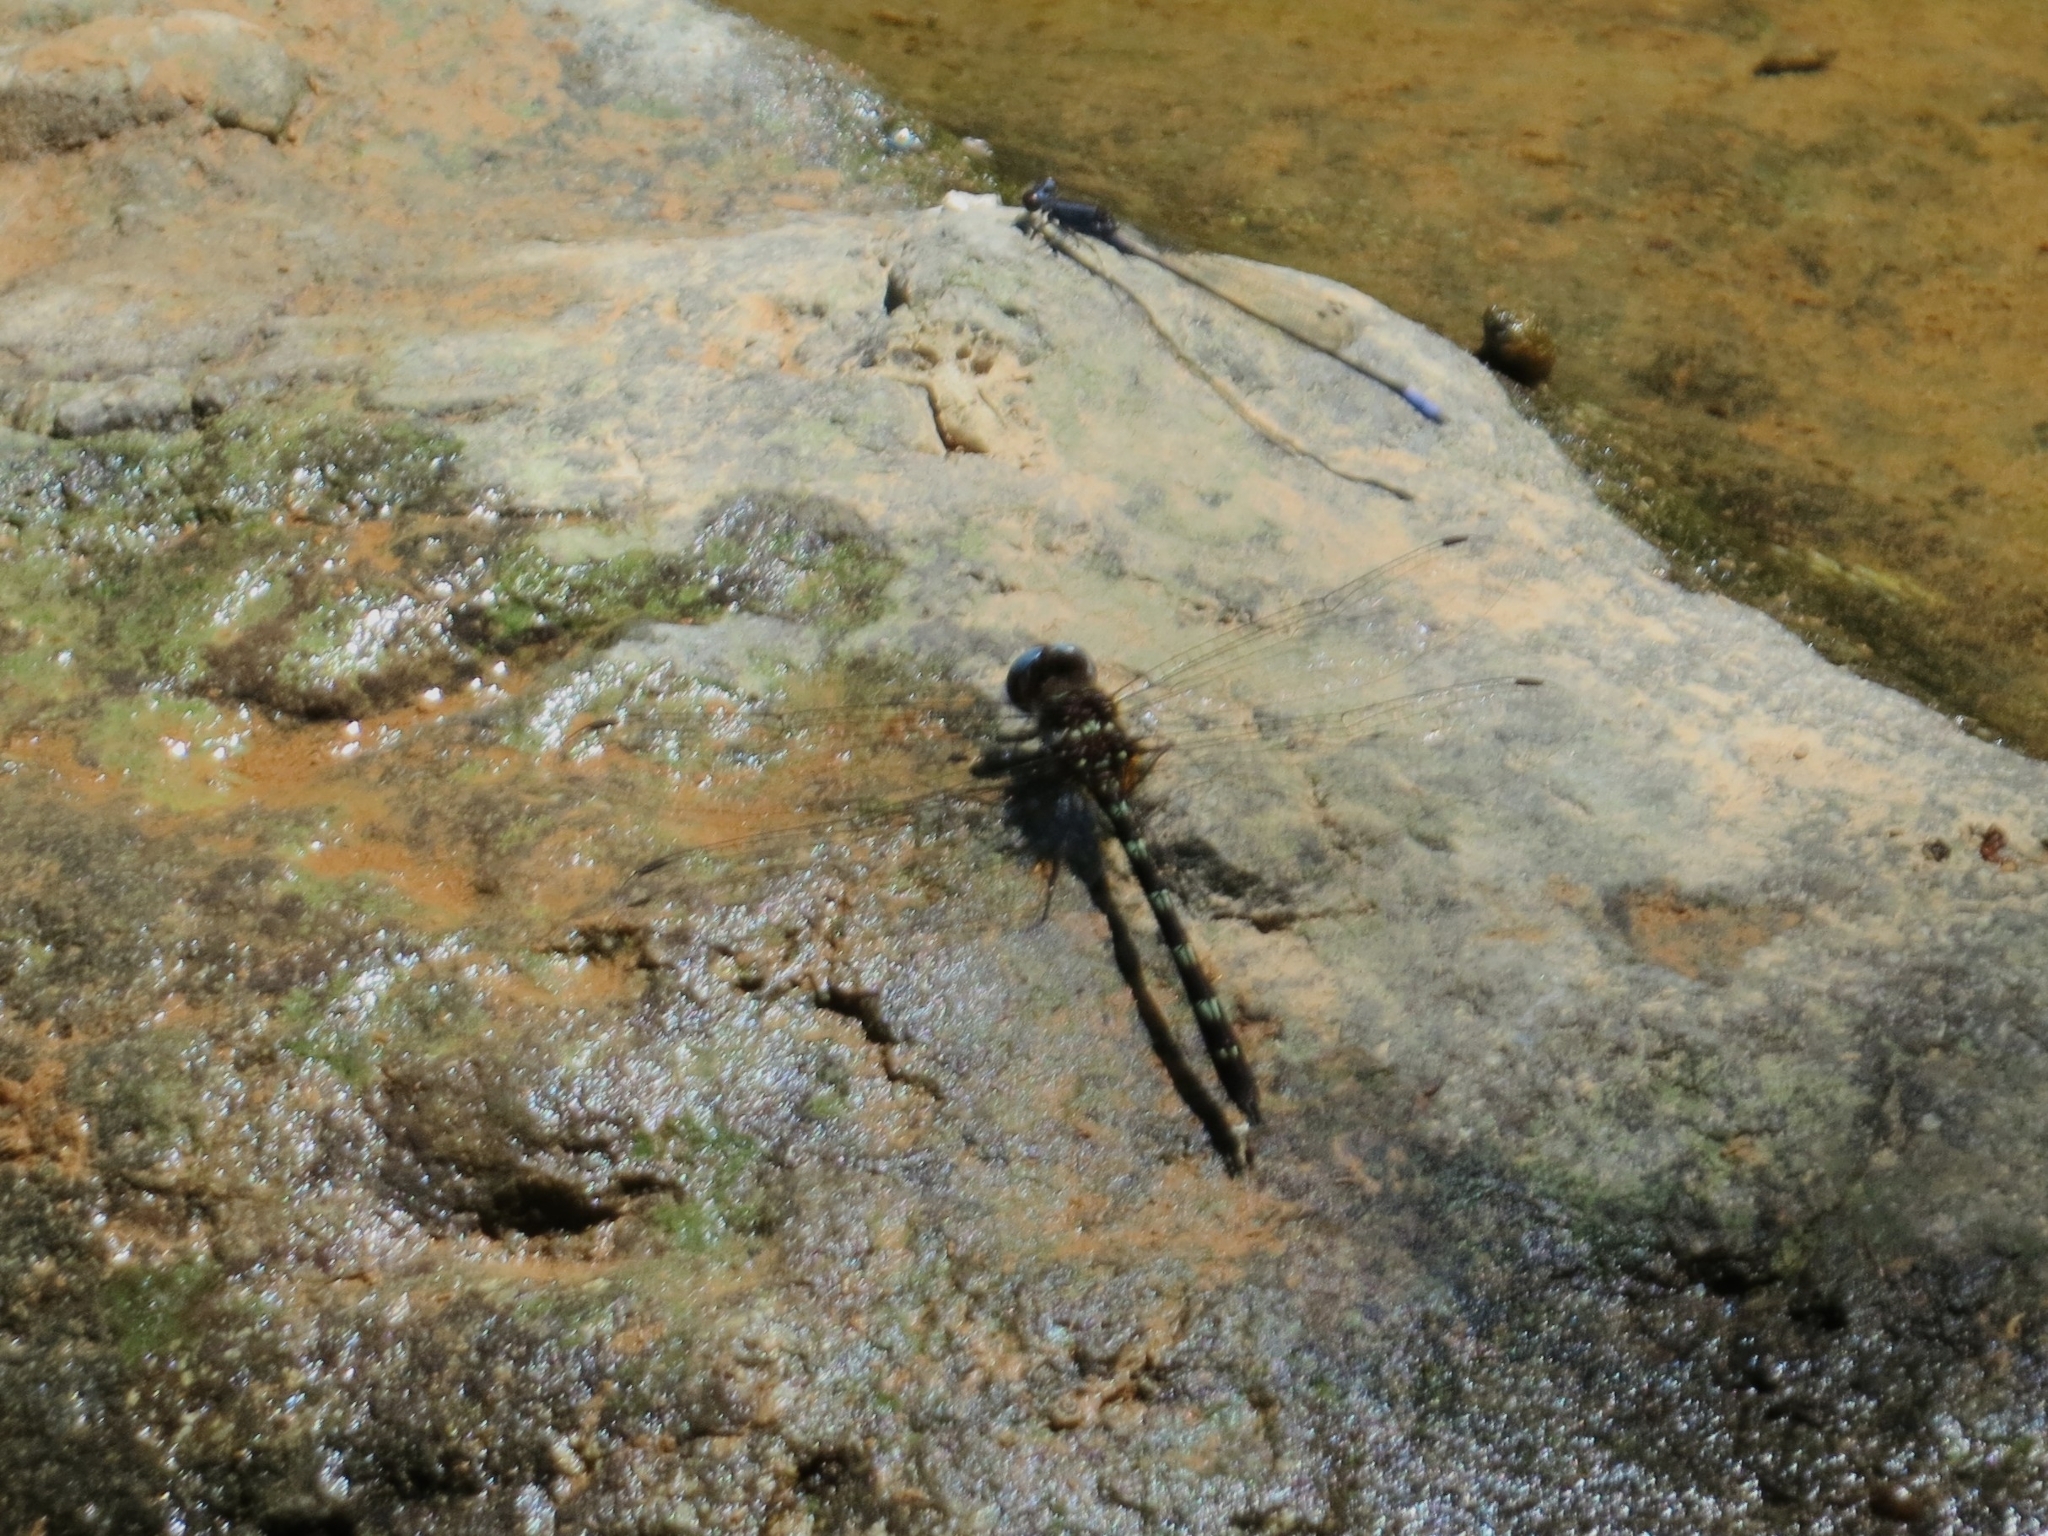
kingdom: Animalia
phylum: Arthropoda
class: Insecta
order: Odonata
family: Libellulidae
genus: Macrothemis
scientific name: Macrothemis celeno
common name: Antillean sylph
